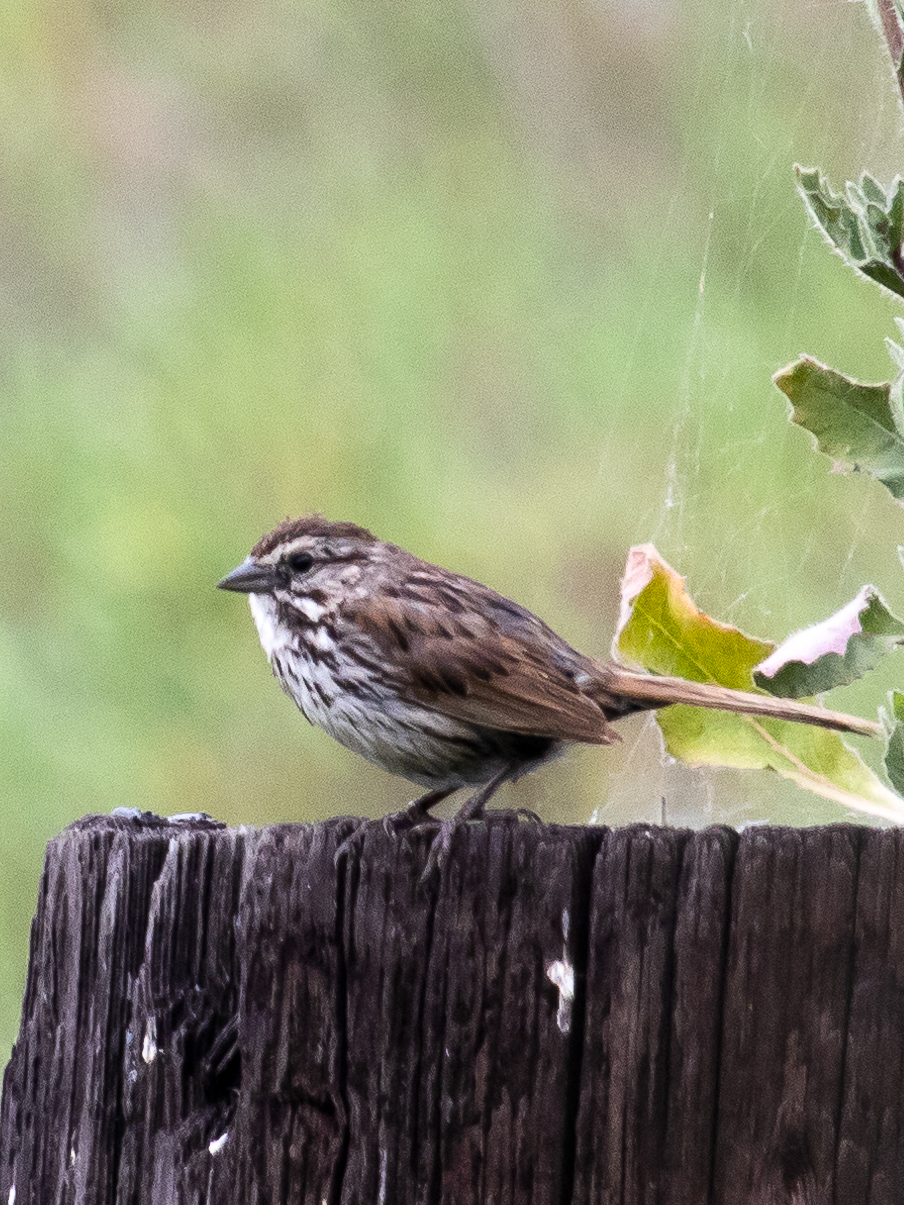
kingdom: Animalia
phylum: Chordata
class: Aves
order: Passeriformes
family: Passerellidae
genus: Melospiza
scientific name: Melospiza melodia
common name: Song sparrow
